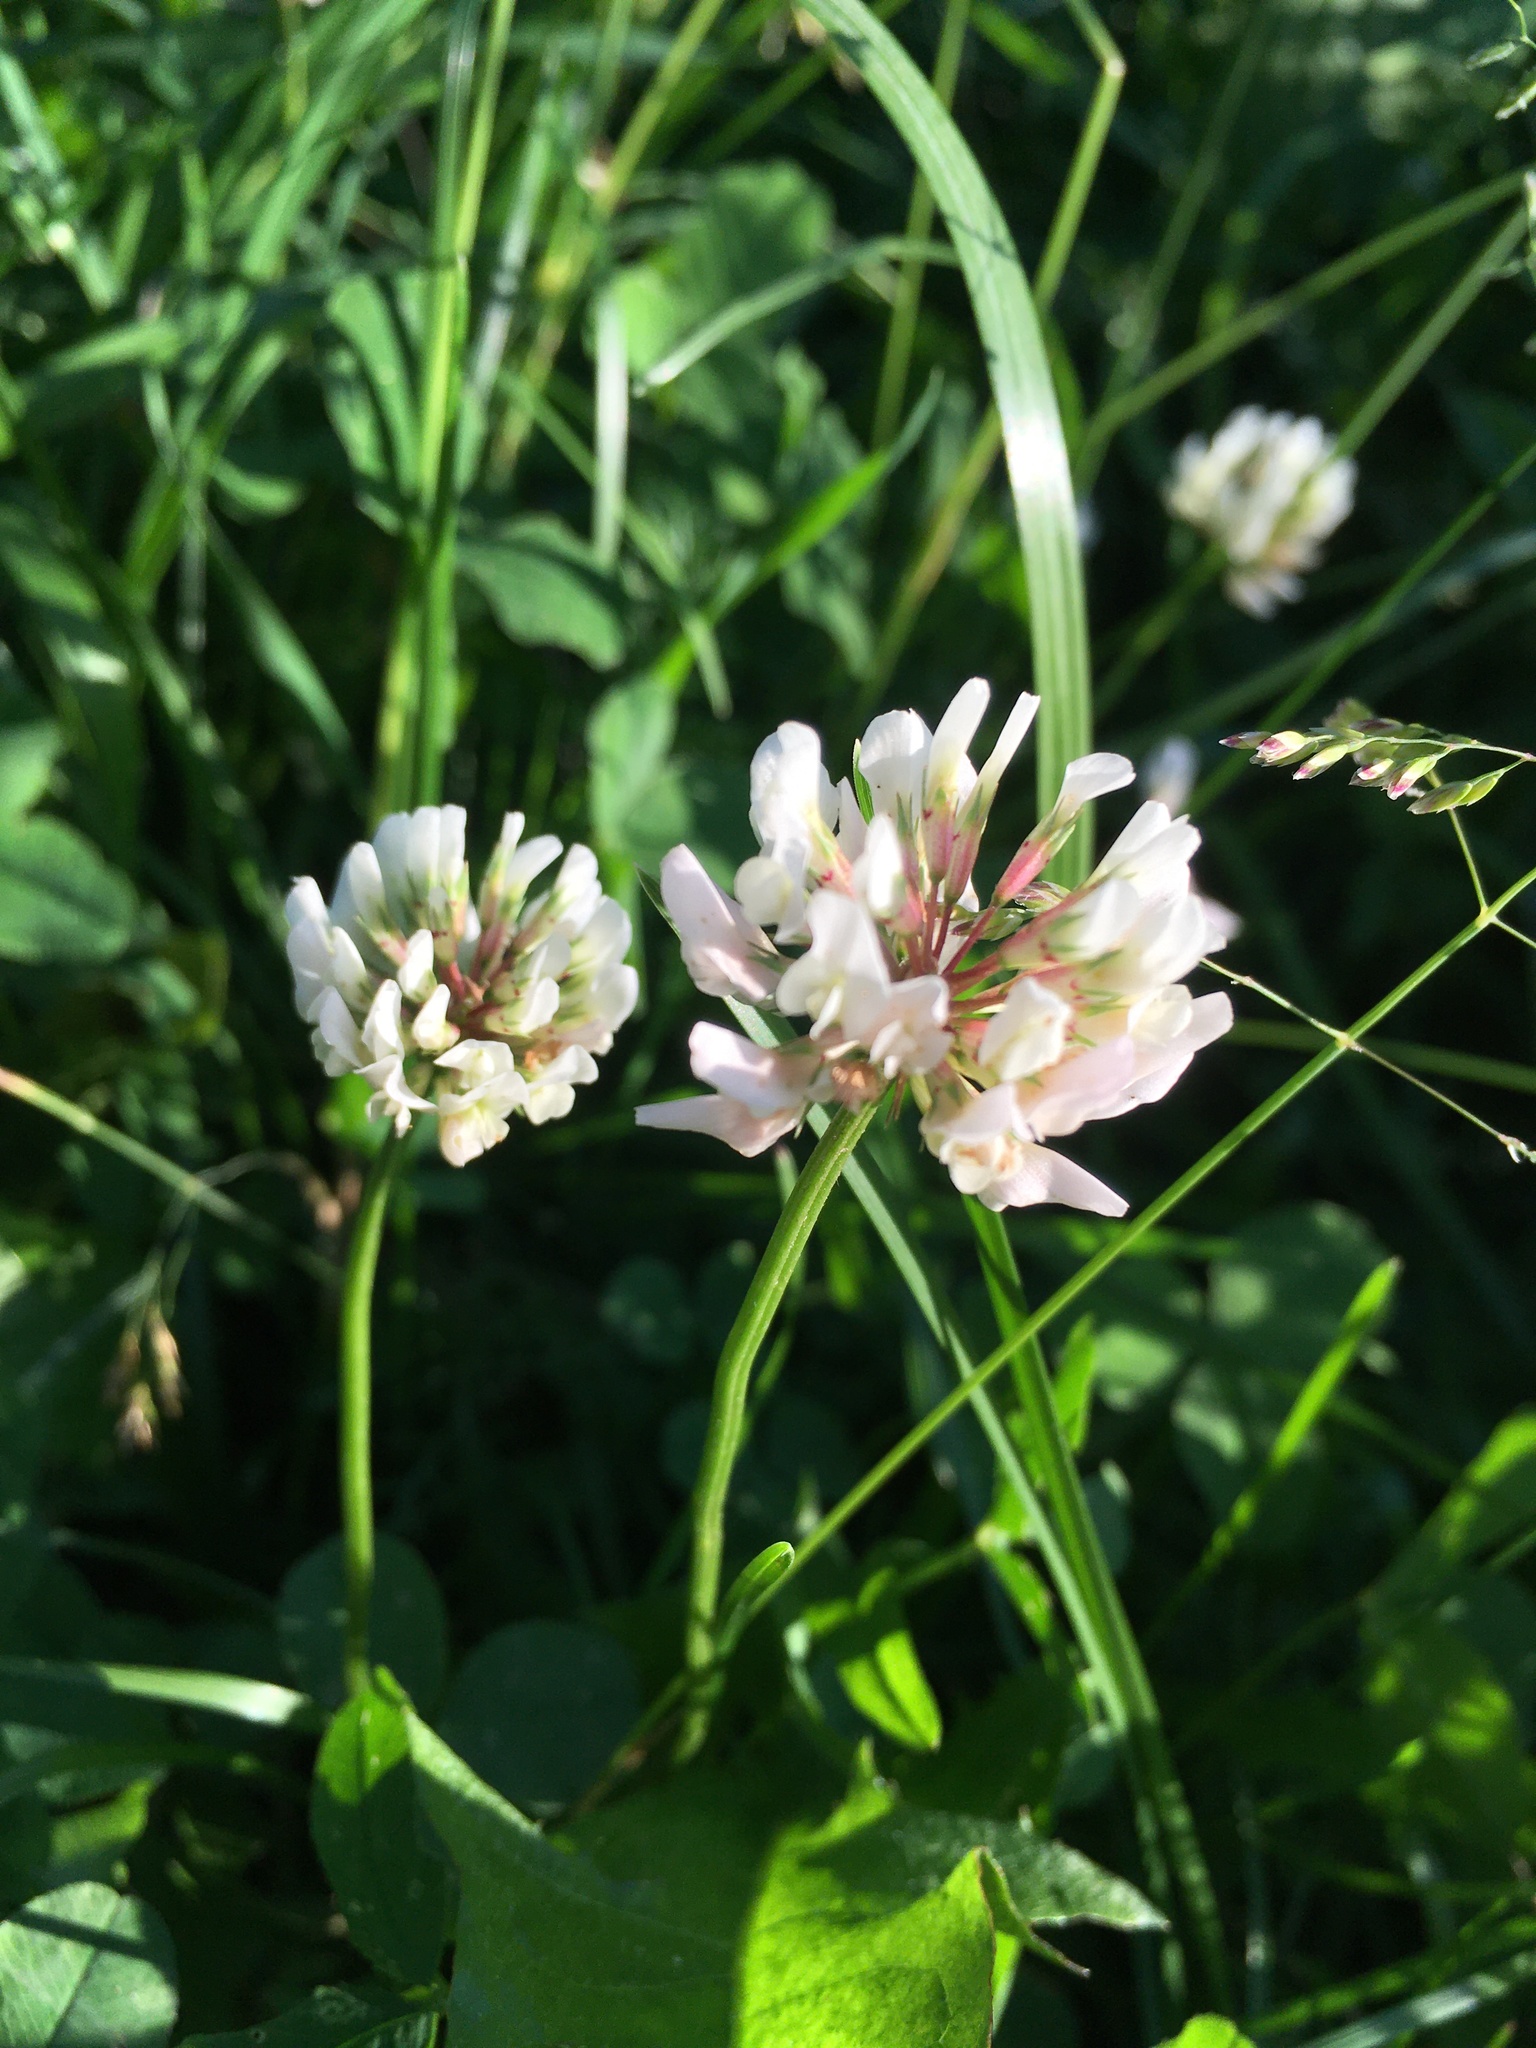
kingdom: Plantae
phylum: Tracheophyta
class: Magnoliopsida
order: Fabales
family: Fabaceae
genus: Trifolium
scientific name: Trifolium repens
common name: White clover
